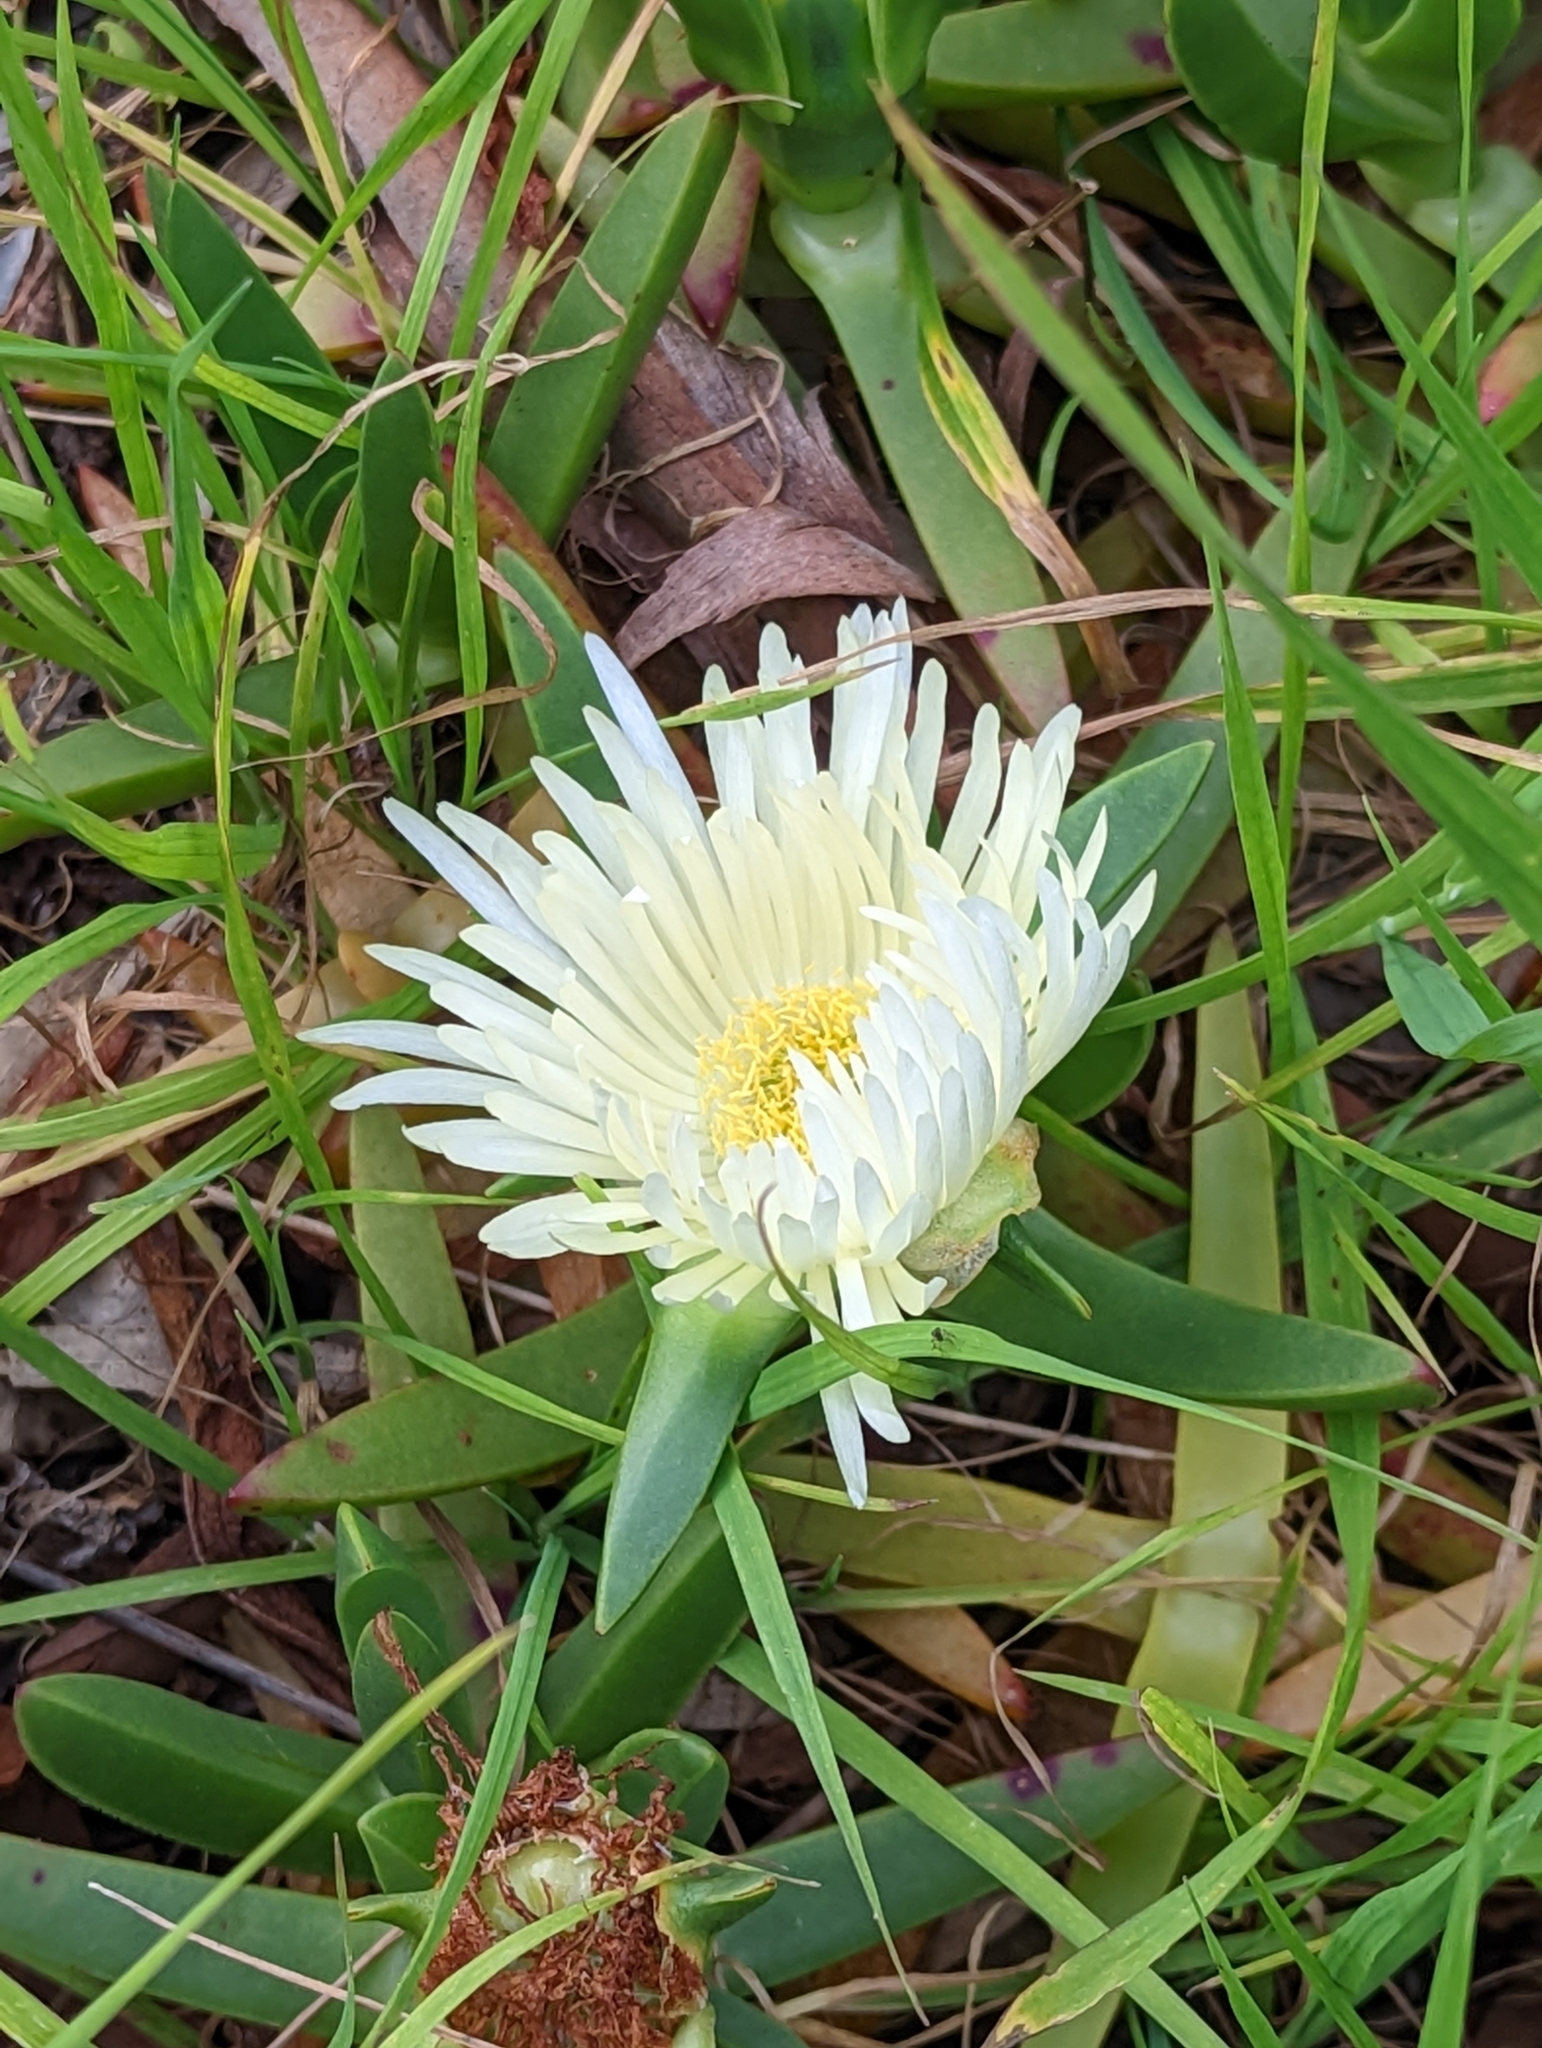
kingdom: Plantae
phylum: Tracheophyta
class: Magnoliopsida
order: Caryophyllales
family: Aizoaceae
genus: Carpobrotus
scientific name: Carpobrotus edulis
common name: Hottentot-fig
